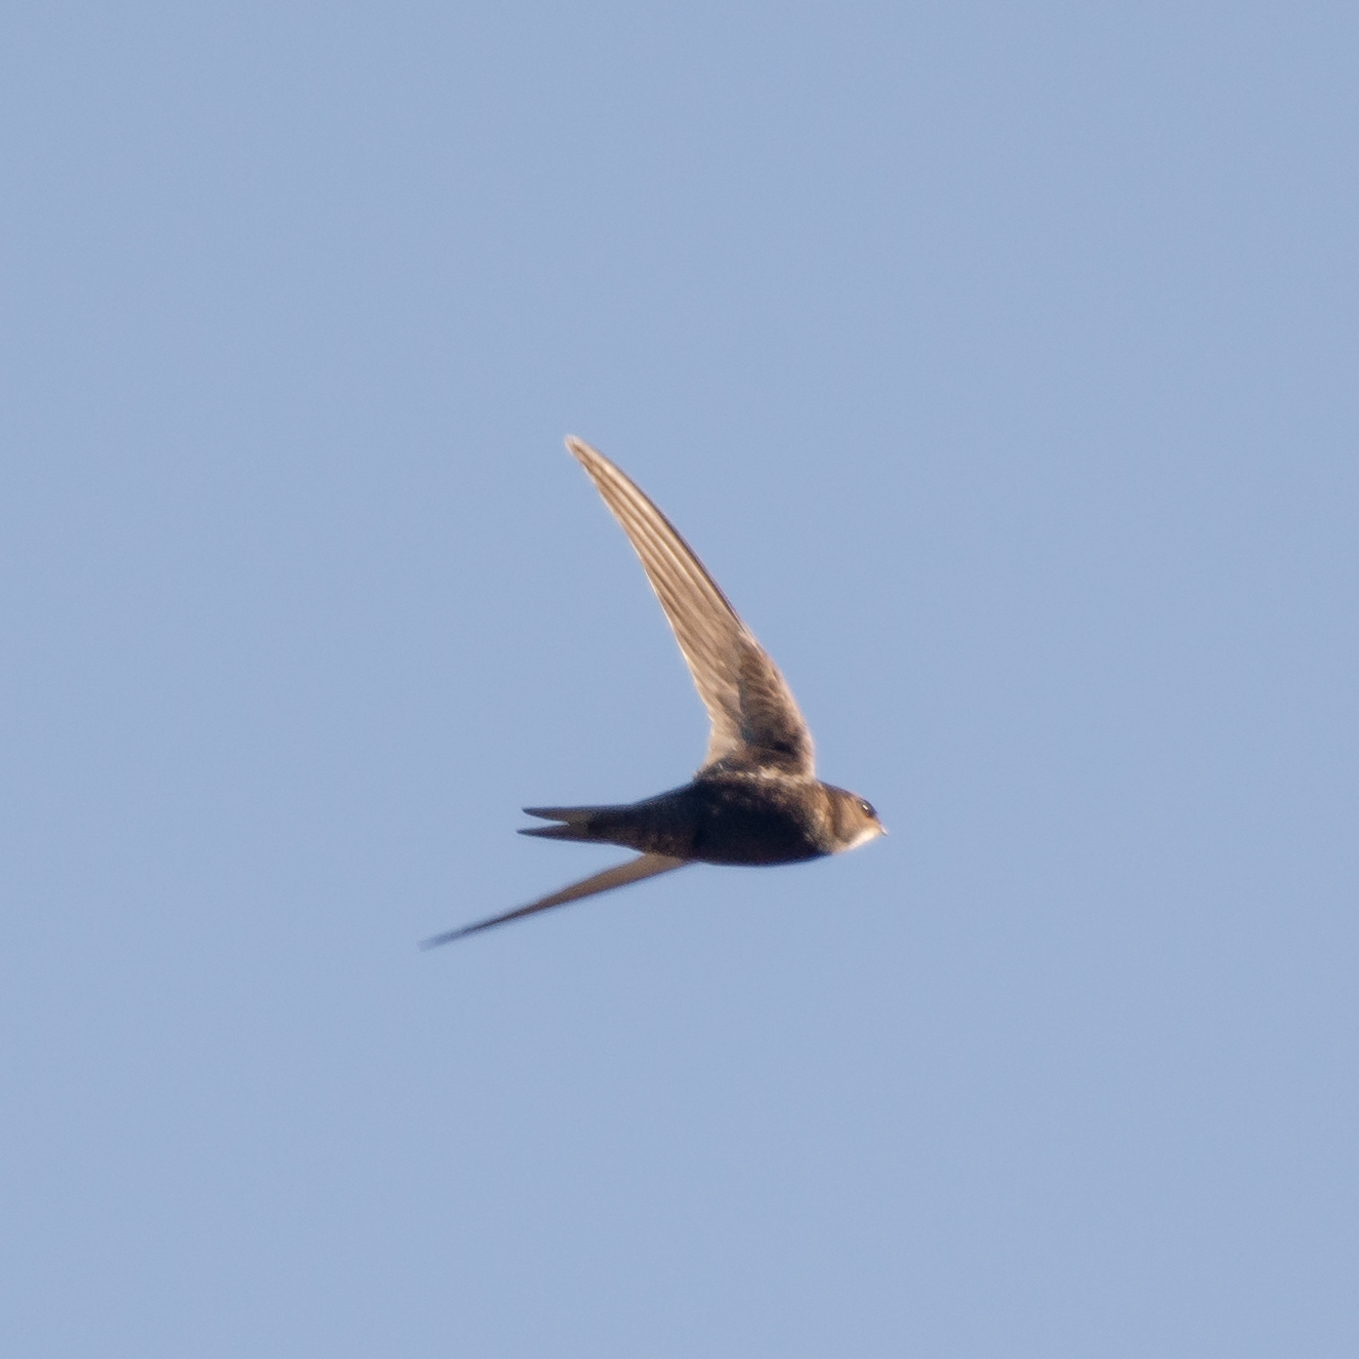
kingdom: Animalia
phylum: Chordata
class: Aves
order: Apodiformes
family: Apodidae
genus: Apus
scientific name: Apus apus
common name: Common swift
